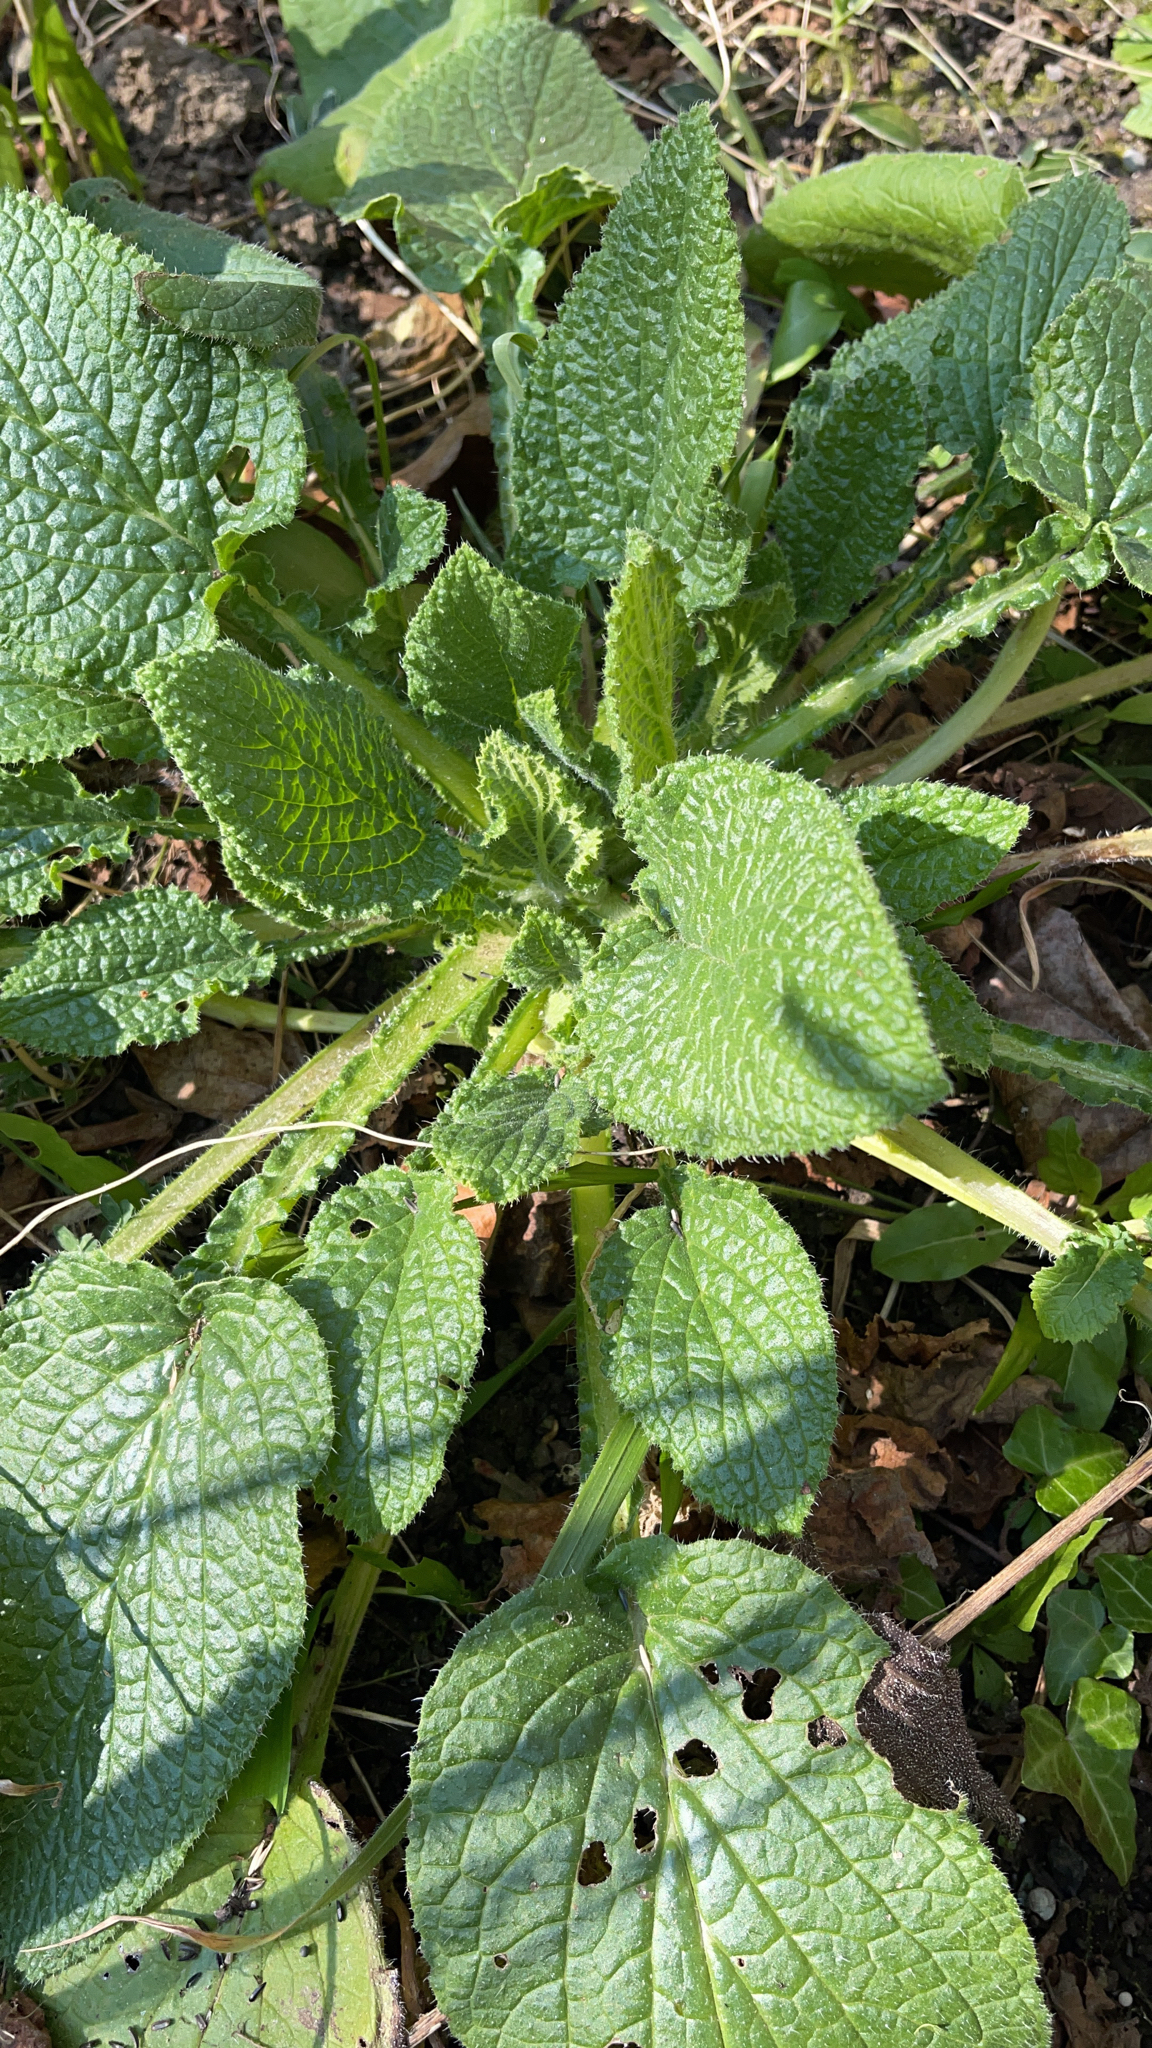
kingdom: Plantae
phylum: Tracheophyta
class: Magnoliopsida
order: Boraginales
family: Boraginaceae
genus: Borago
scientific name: Borago officinalis
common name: Borage
